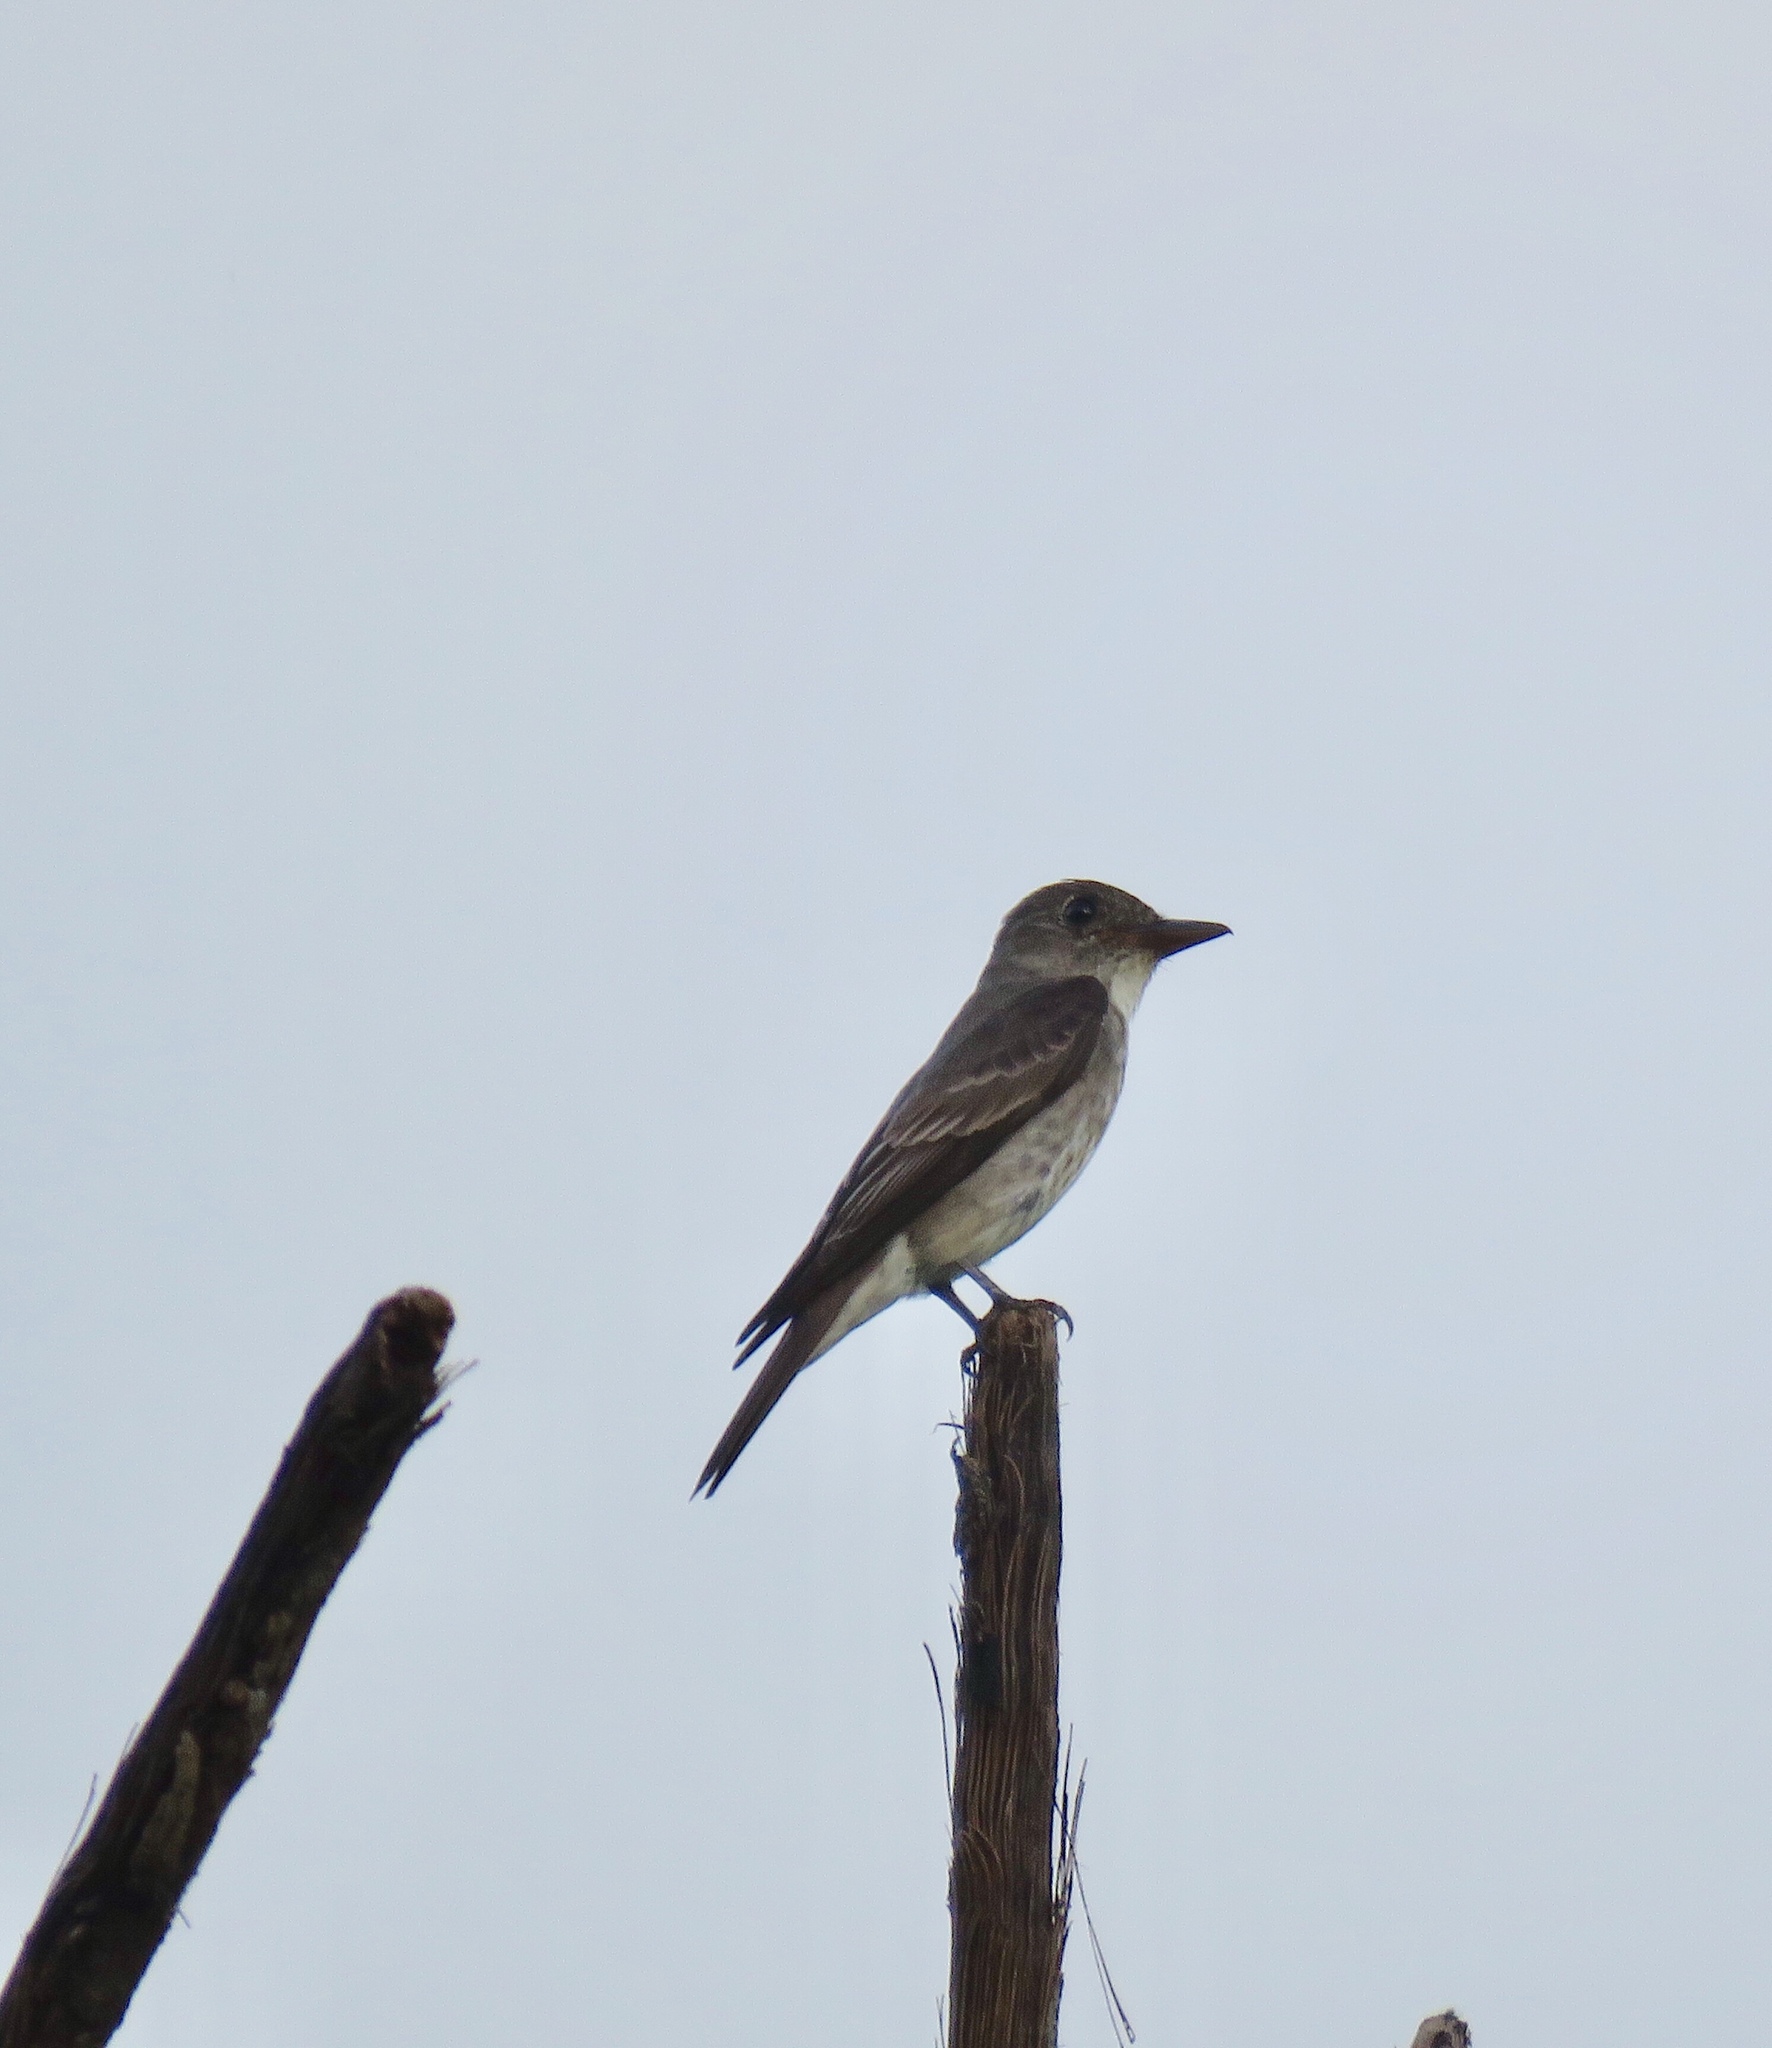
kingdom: Animalia
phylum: Chordata
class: Aves
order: Passeriformes
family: Tyrannidae
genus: Contopus
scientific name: Contopus cooperi
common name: Olive-sided flycatcher
